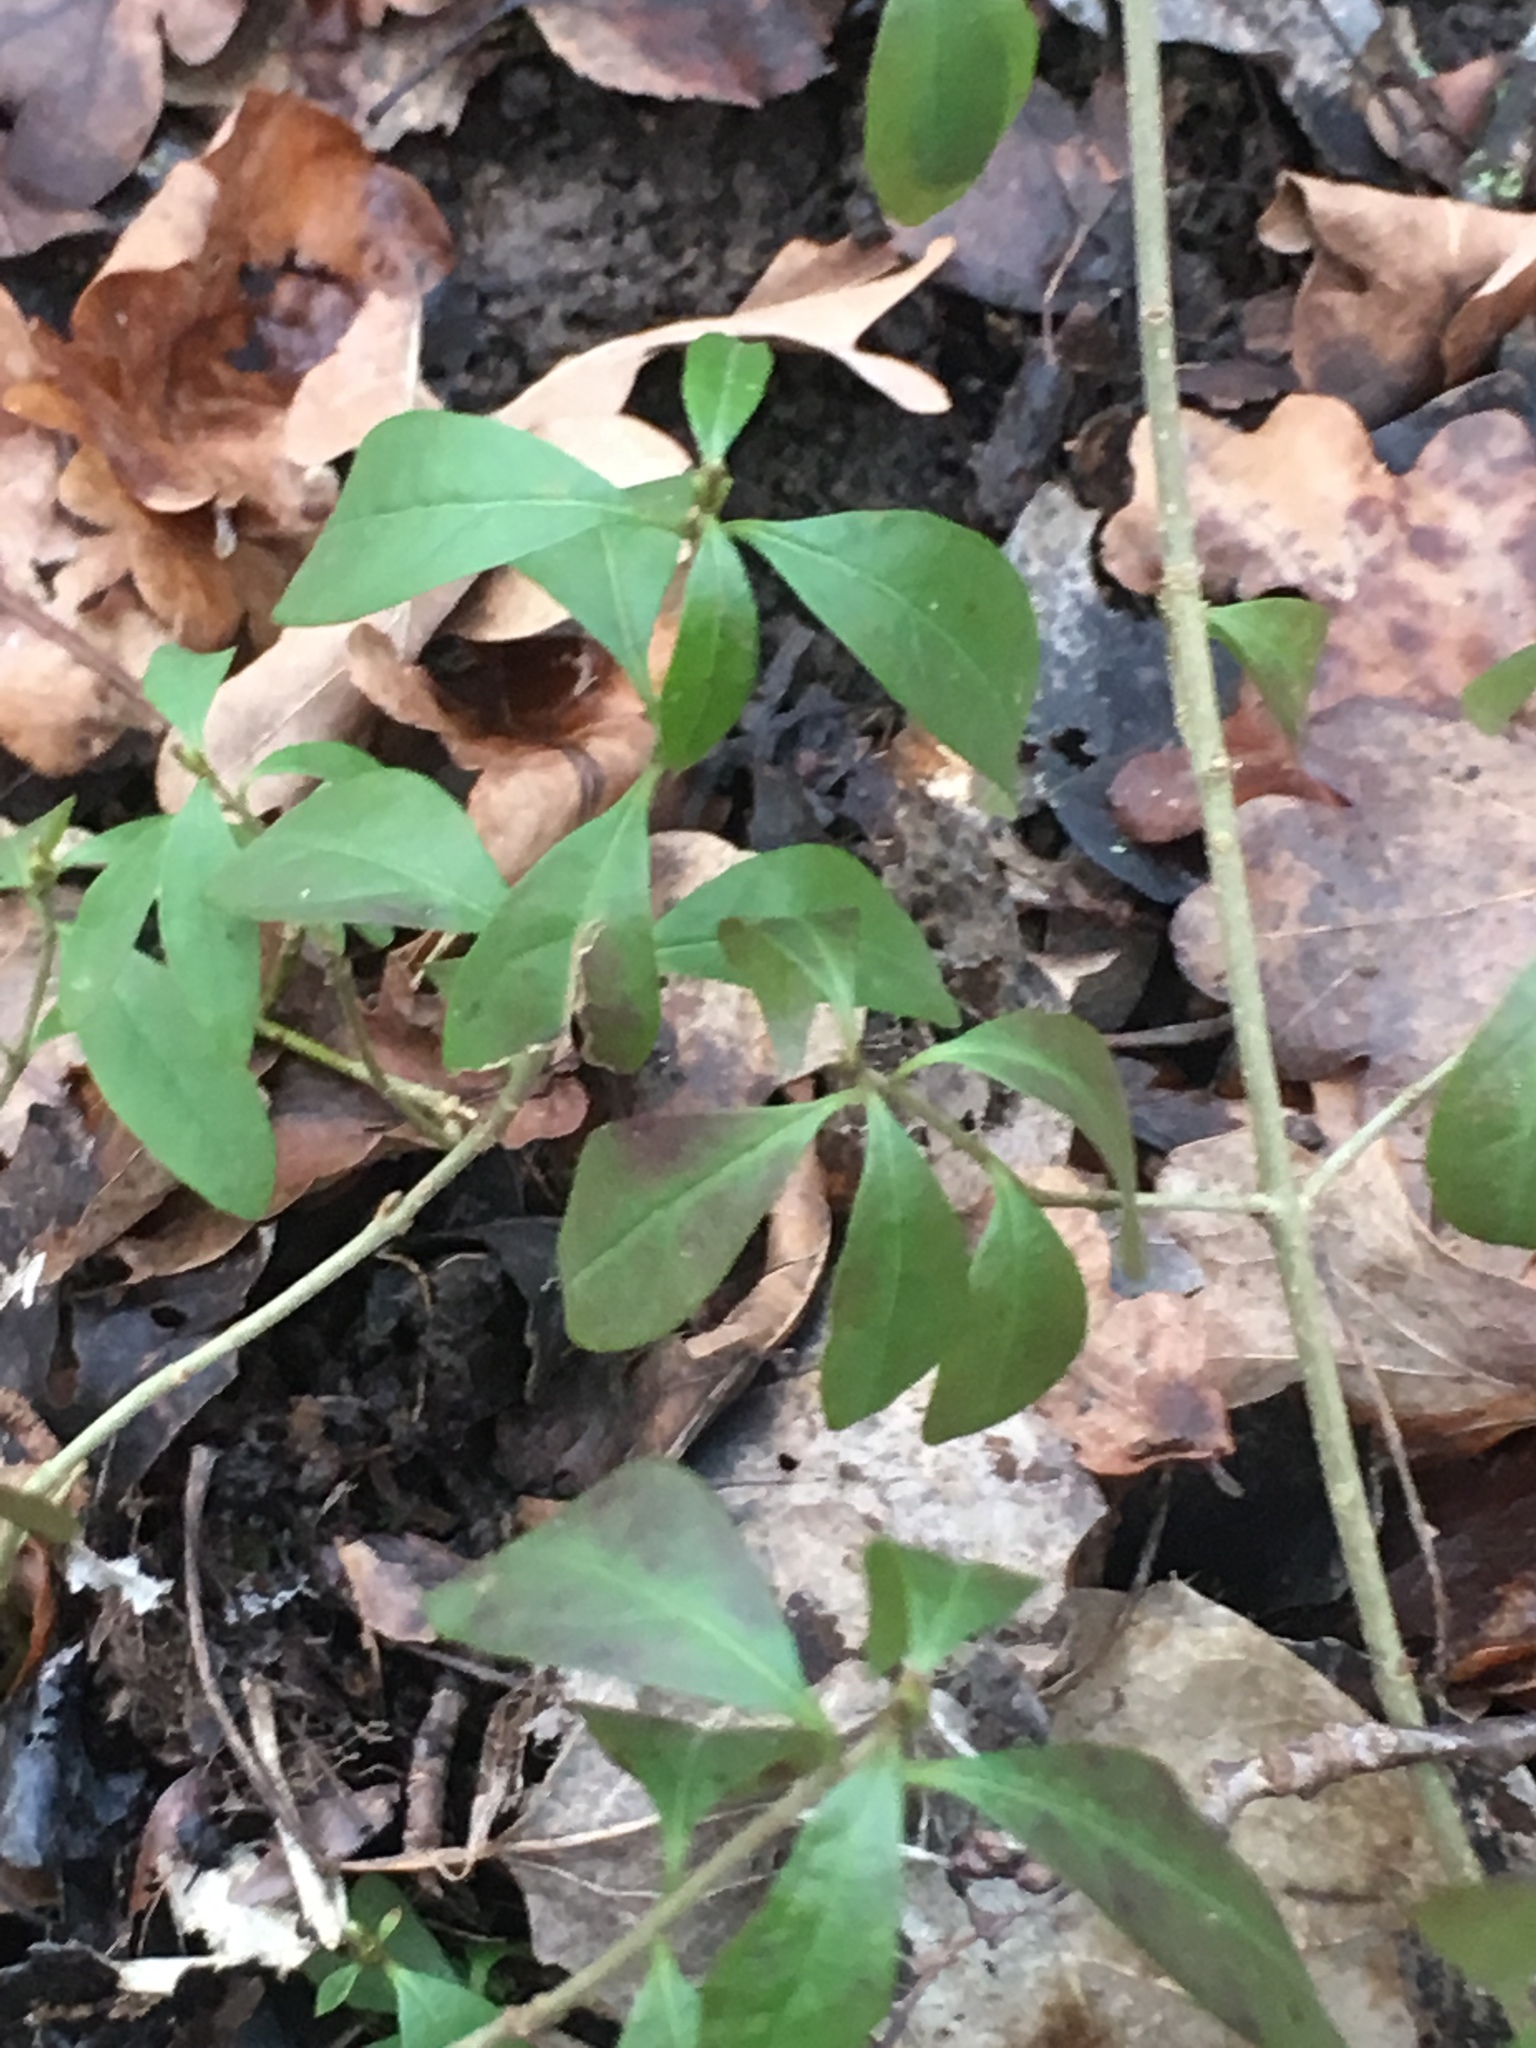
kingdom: Plantae
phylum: Tracheophyta
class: Magnoliopsida
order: Lamiales
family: Oleaceae
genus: Ligustrum
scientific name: Ligustrum vulgare
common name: Wild privet
